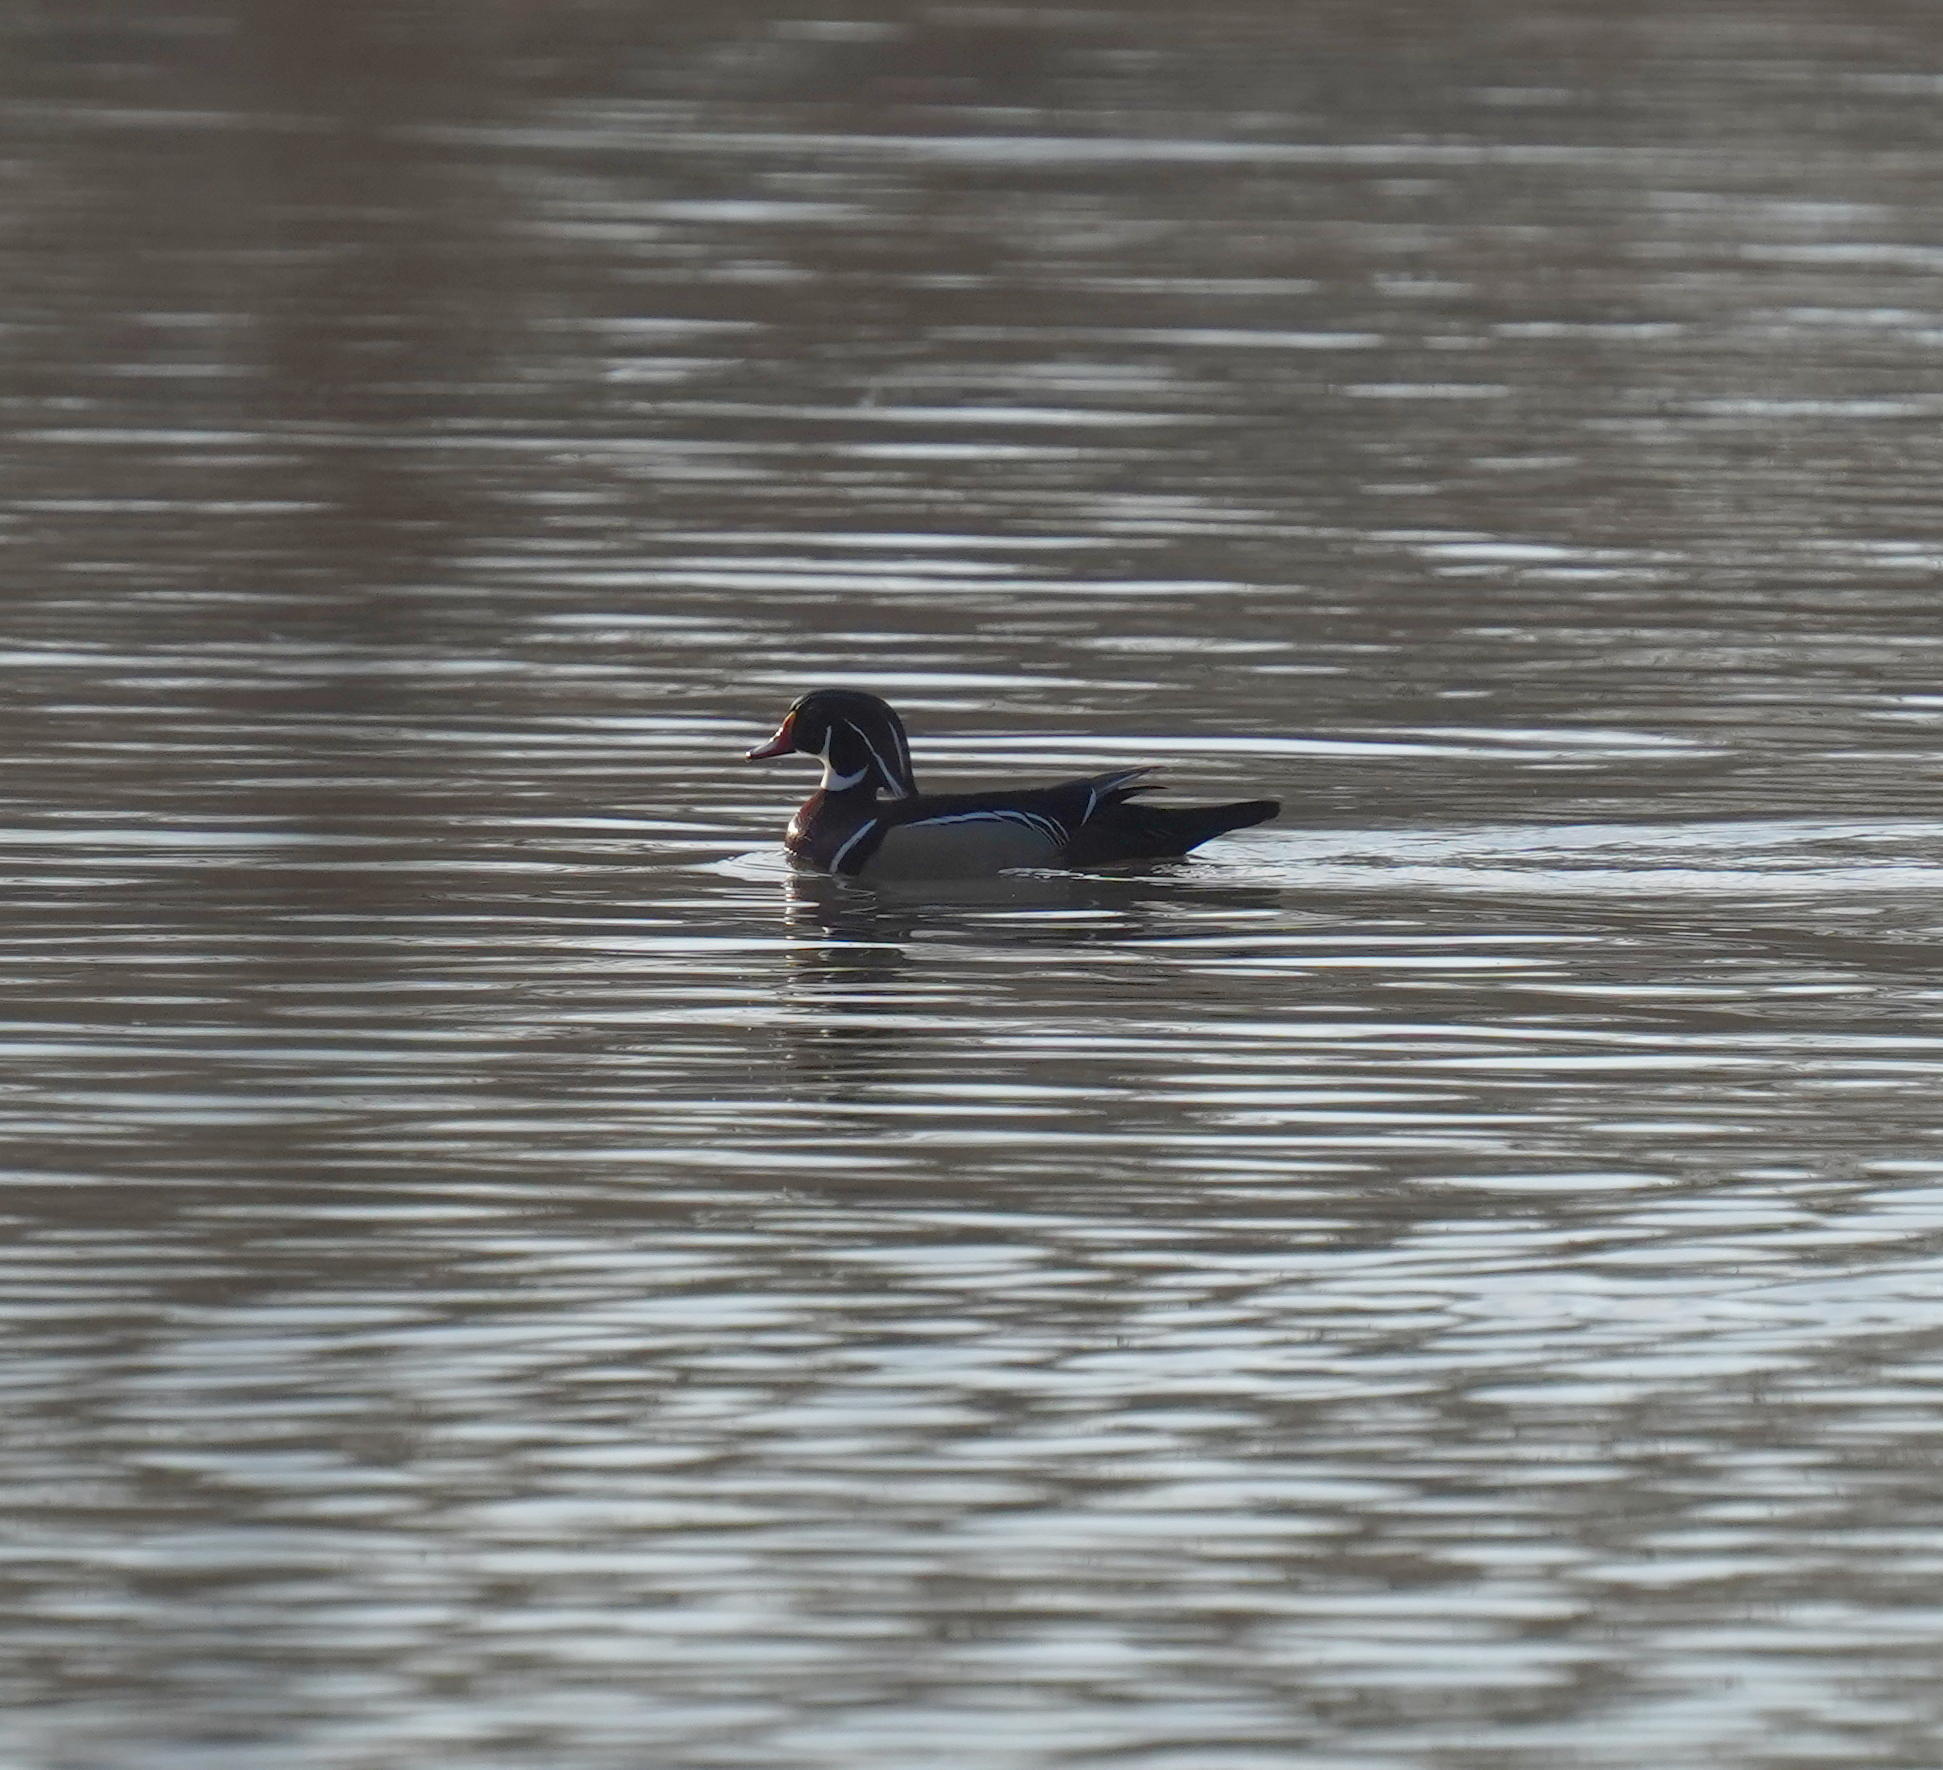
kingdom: Animalia
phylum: Chordata
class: Aves
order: Anseriformes
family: Anatidae
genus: Aix
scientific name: Aix sponsa
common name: Wood duck
